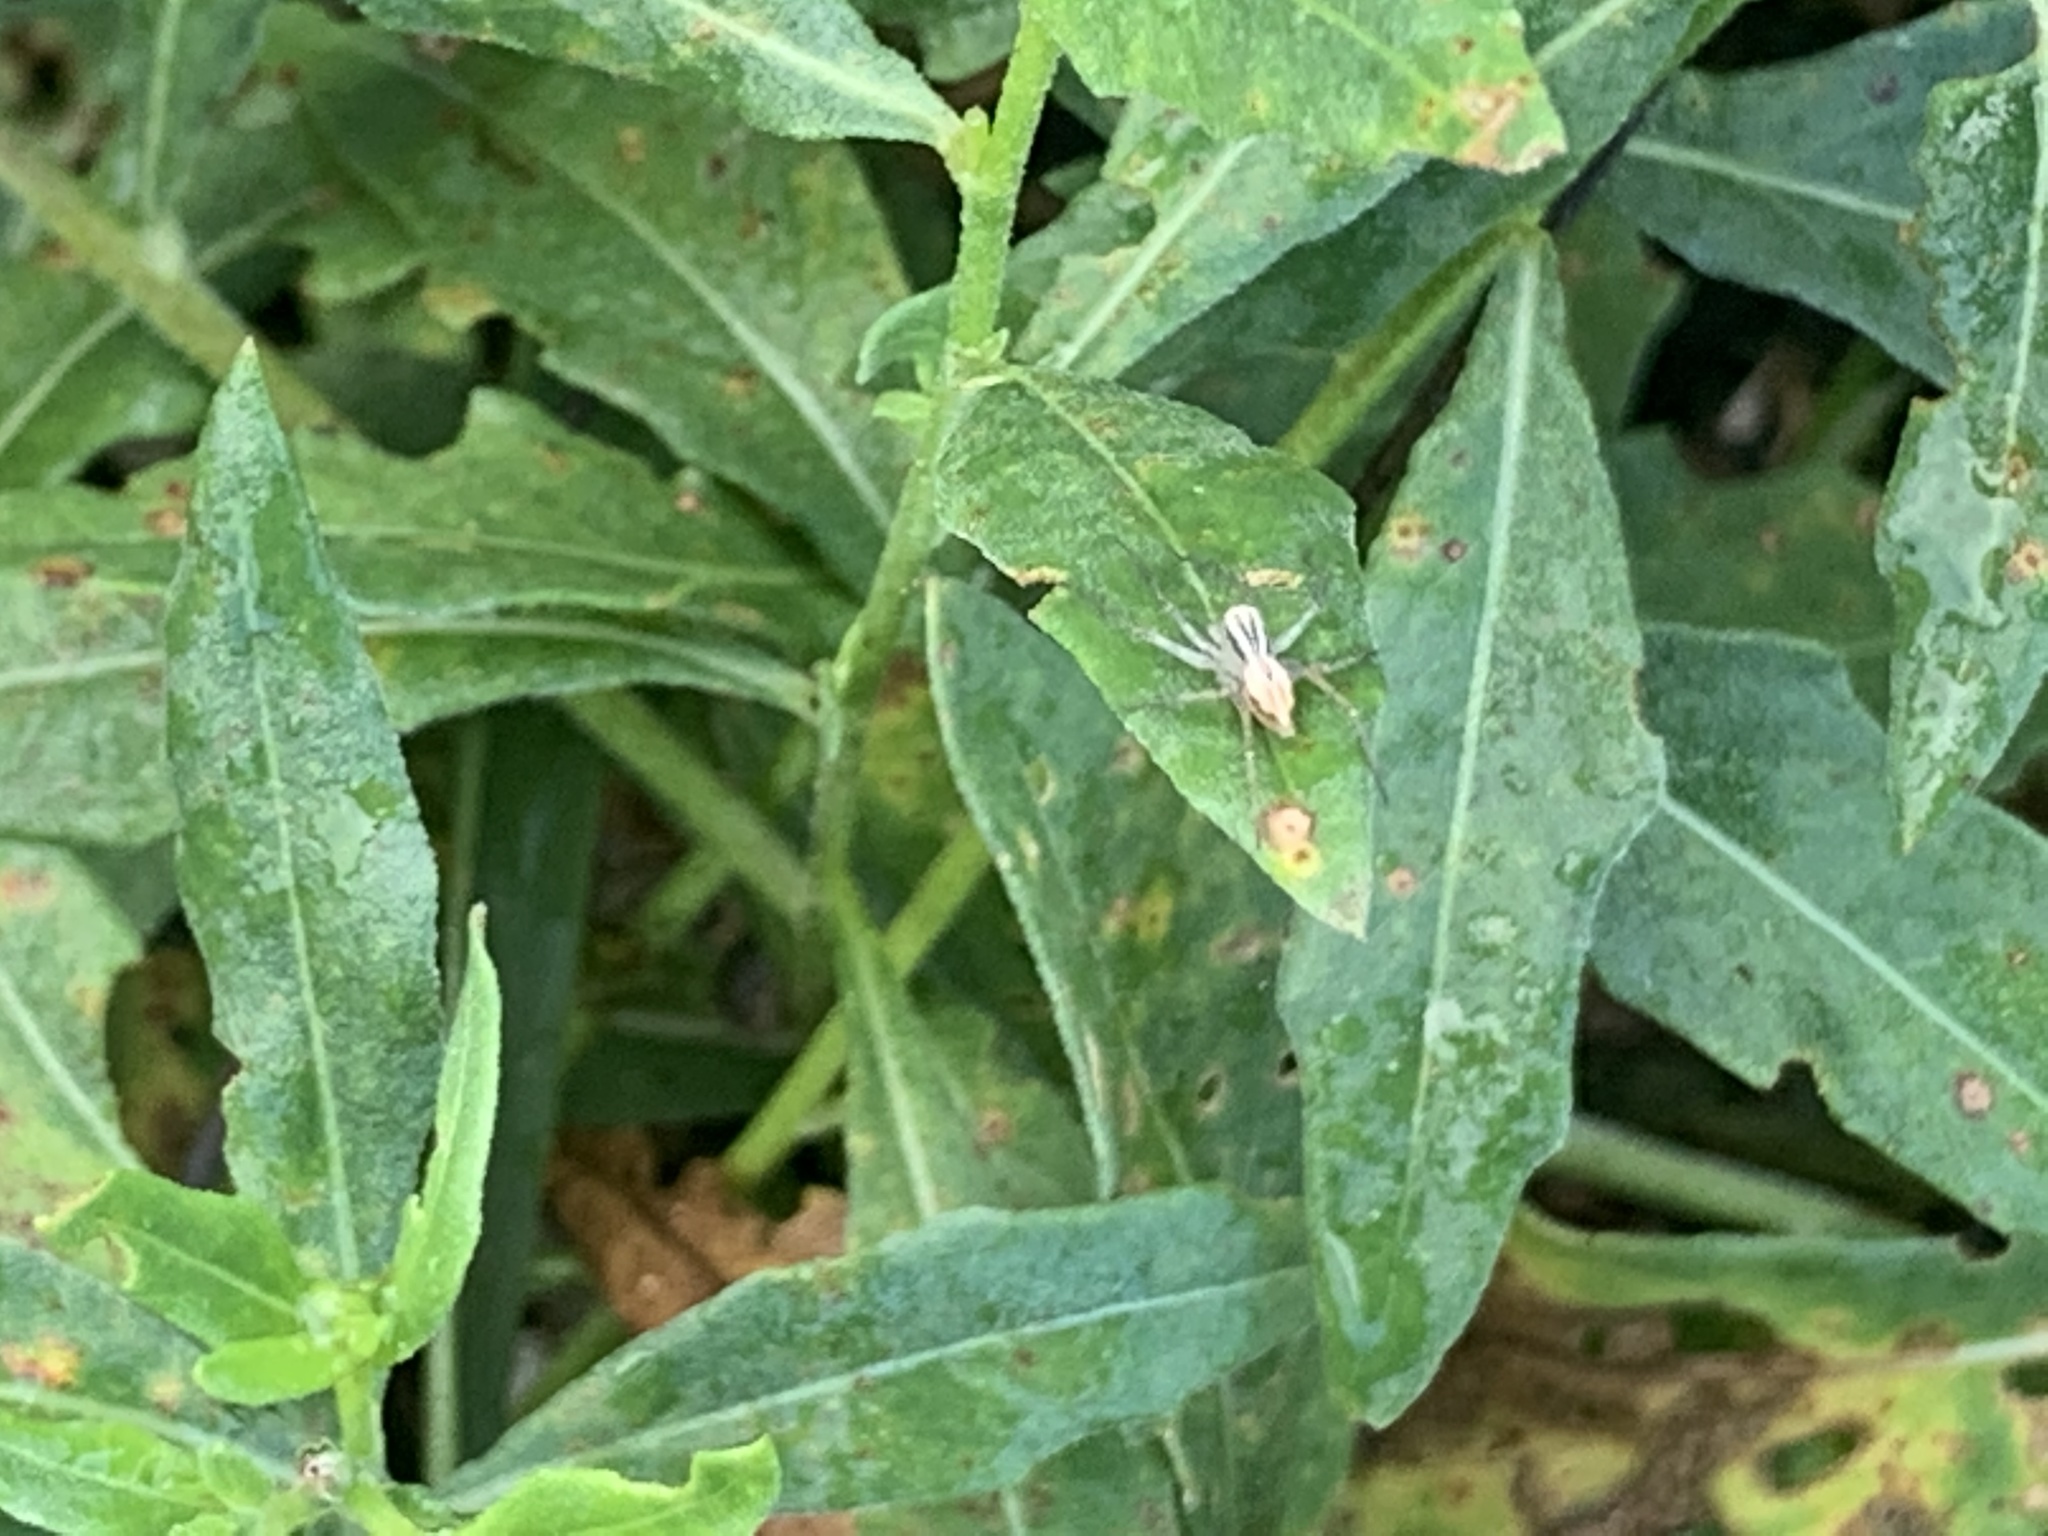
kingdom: Animalia
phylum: Arthropoda
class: Arachnida
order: Araneae
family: Oxyopidae
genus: Oxyopes
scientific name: Oxyopes salticus
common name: Lynx spiders
